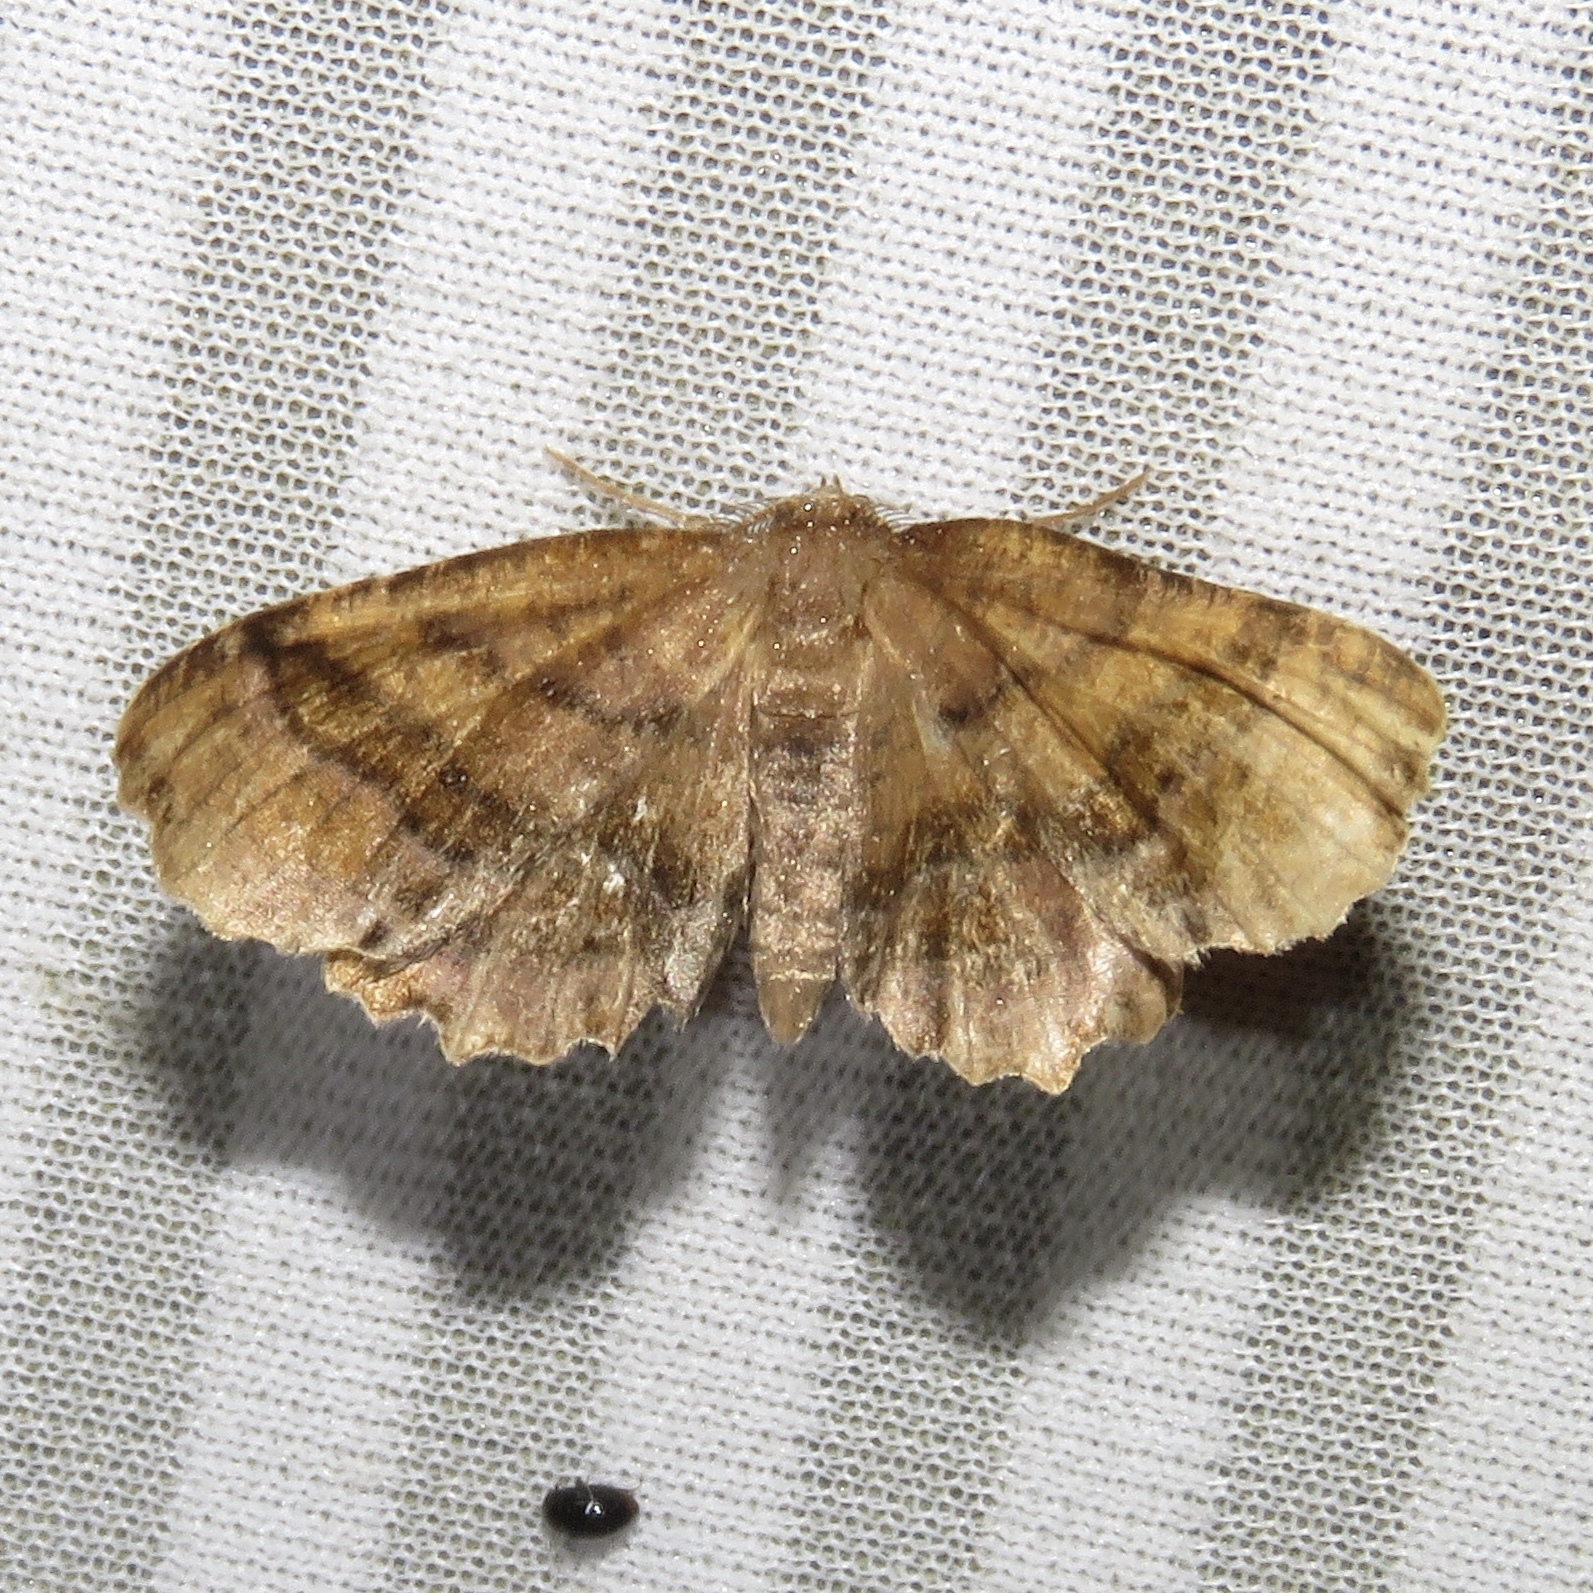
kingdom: Animalia
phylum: Arthropoda
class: Insecta
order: Lepidoptera
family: Geometridae
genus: Cepphis
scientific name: Cepphis armataria
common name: Scallop moth
